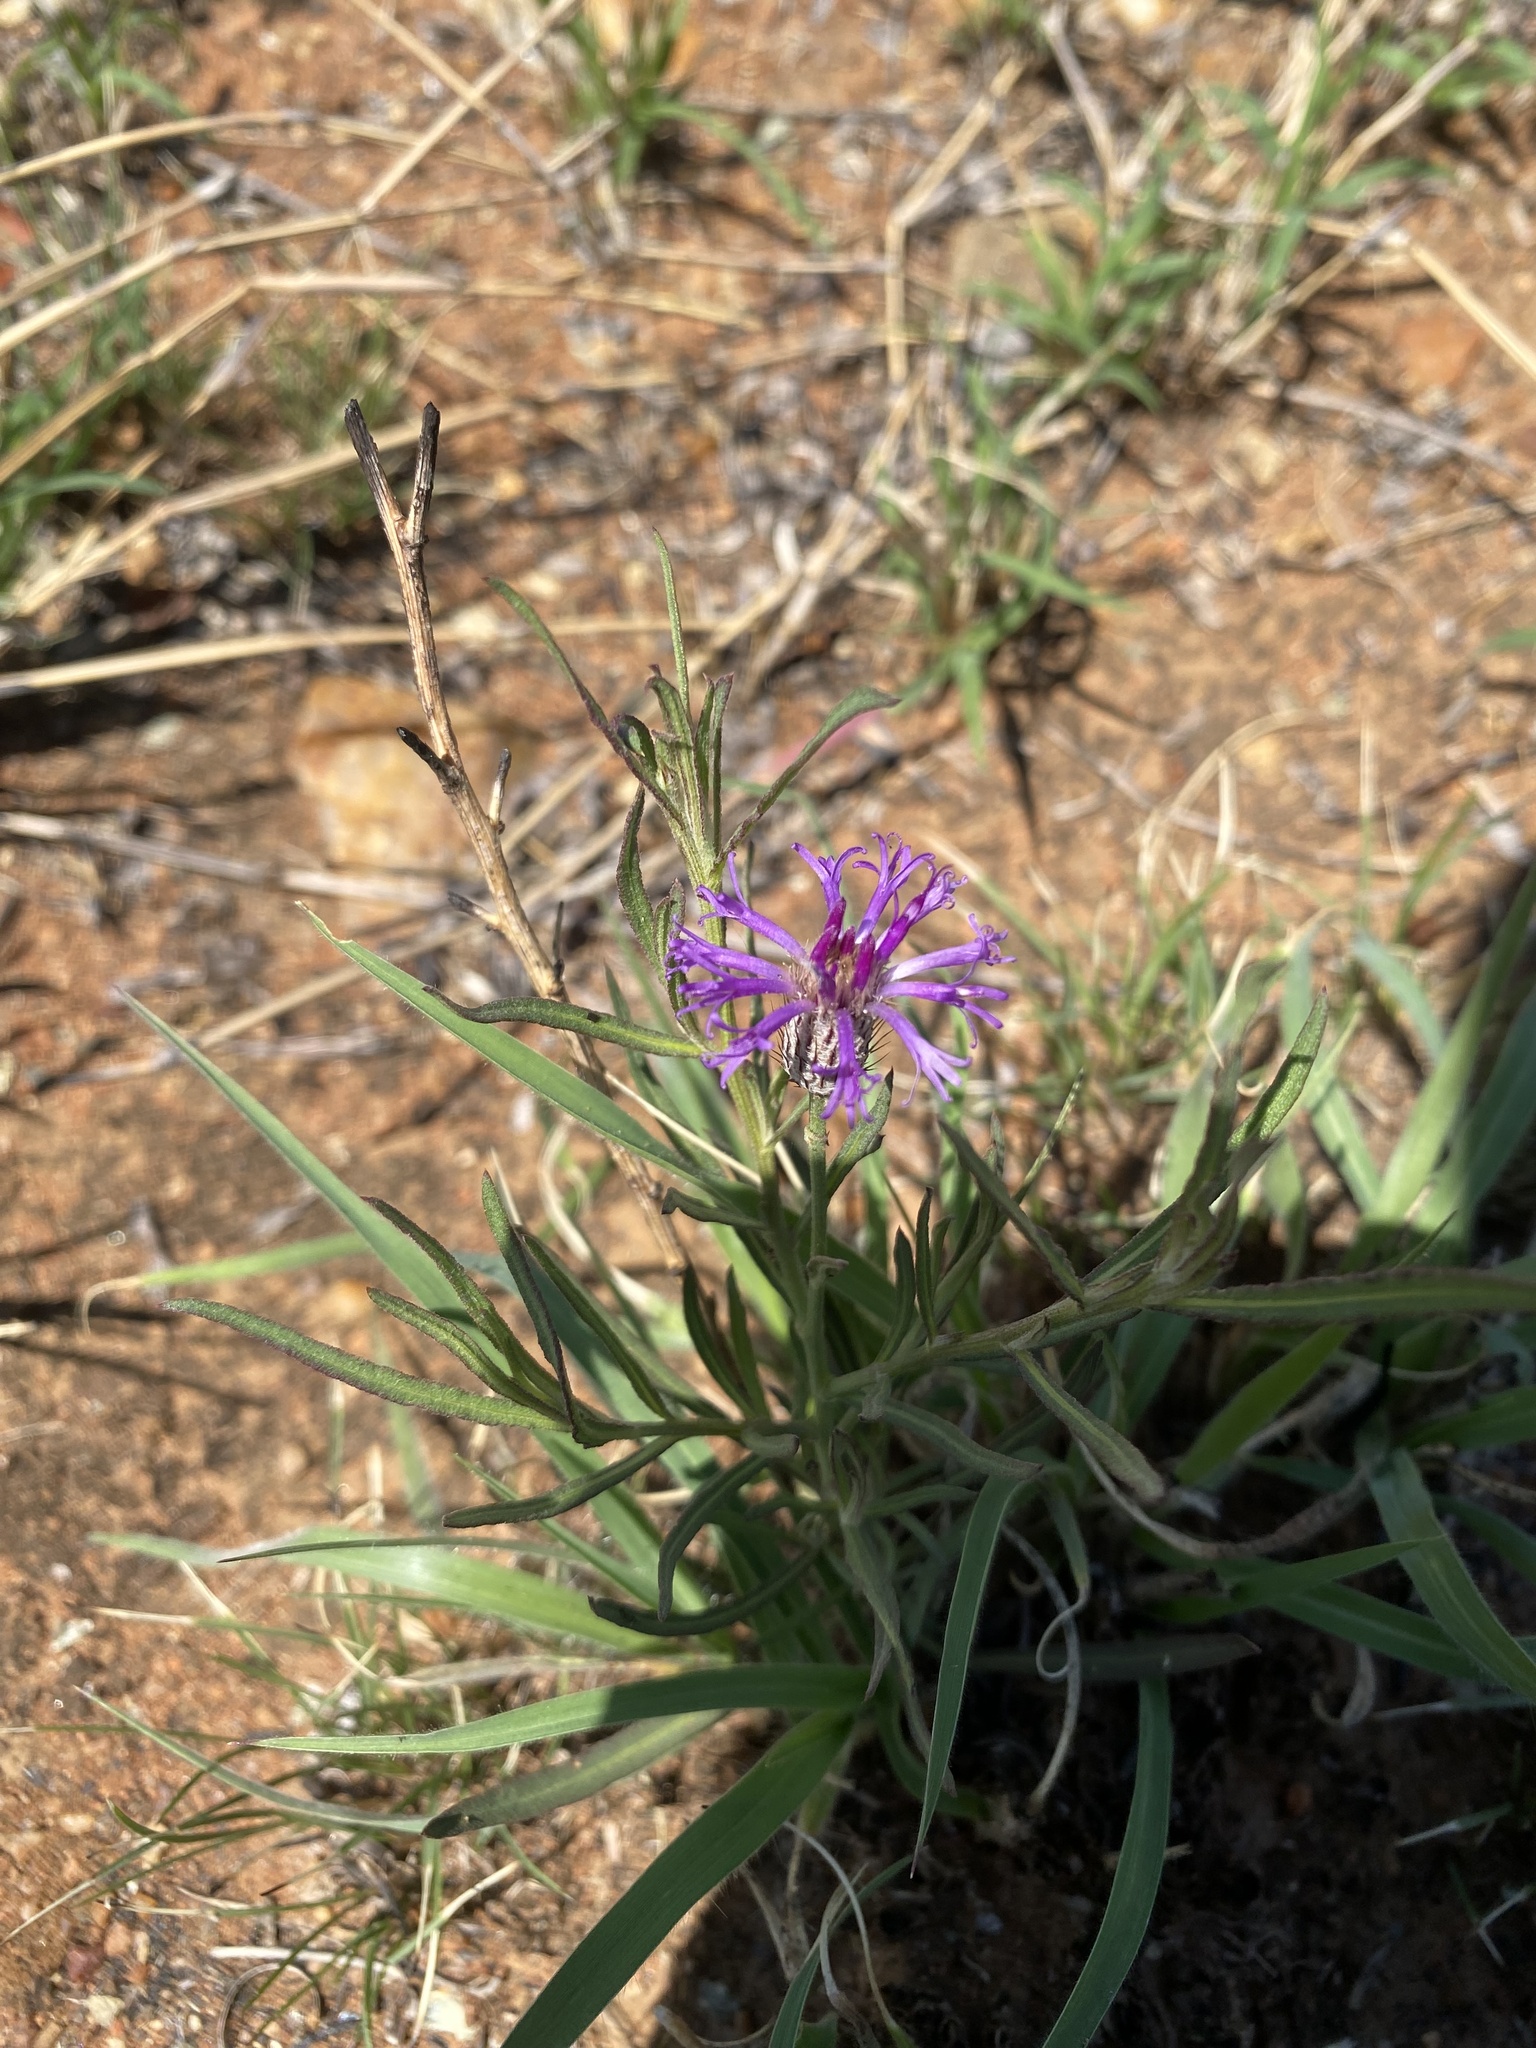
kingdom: Plantae
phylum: Tracheophyta
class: Magnoliopsida
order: Asterales
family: Asteraceae
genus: Parapolydora
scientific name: Parapolydora fastigiata
